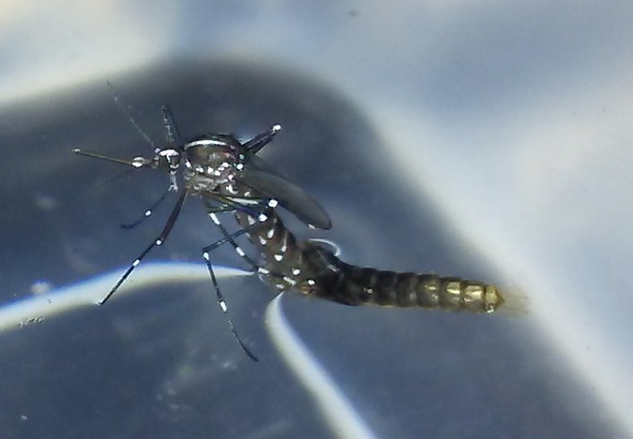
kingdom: Animalia
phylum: Arthropoda
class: Insecta
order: Diptera
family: Culicidae
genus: Aedes
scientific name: Aedes albopictus
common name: Tiger mosquito
